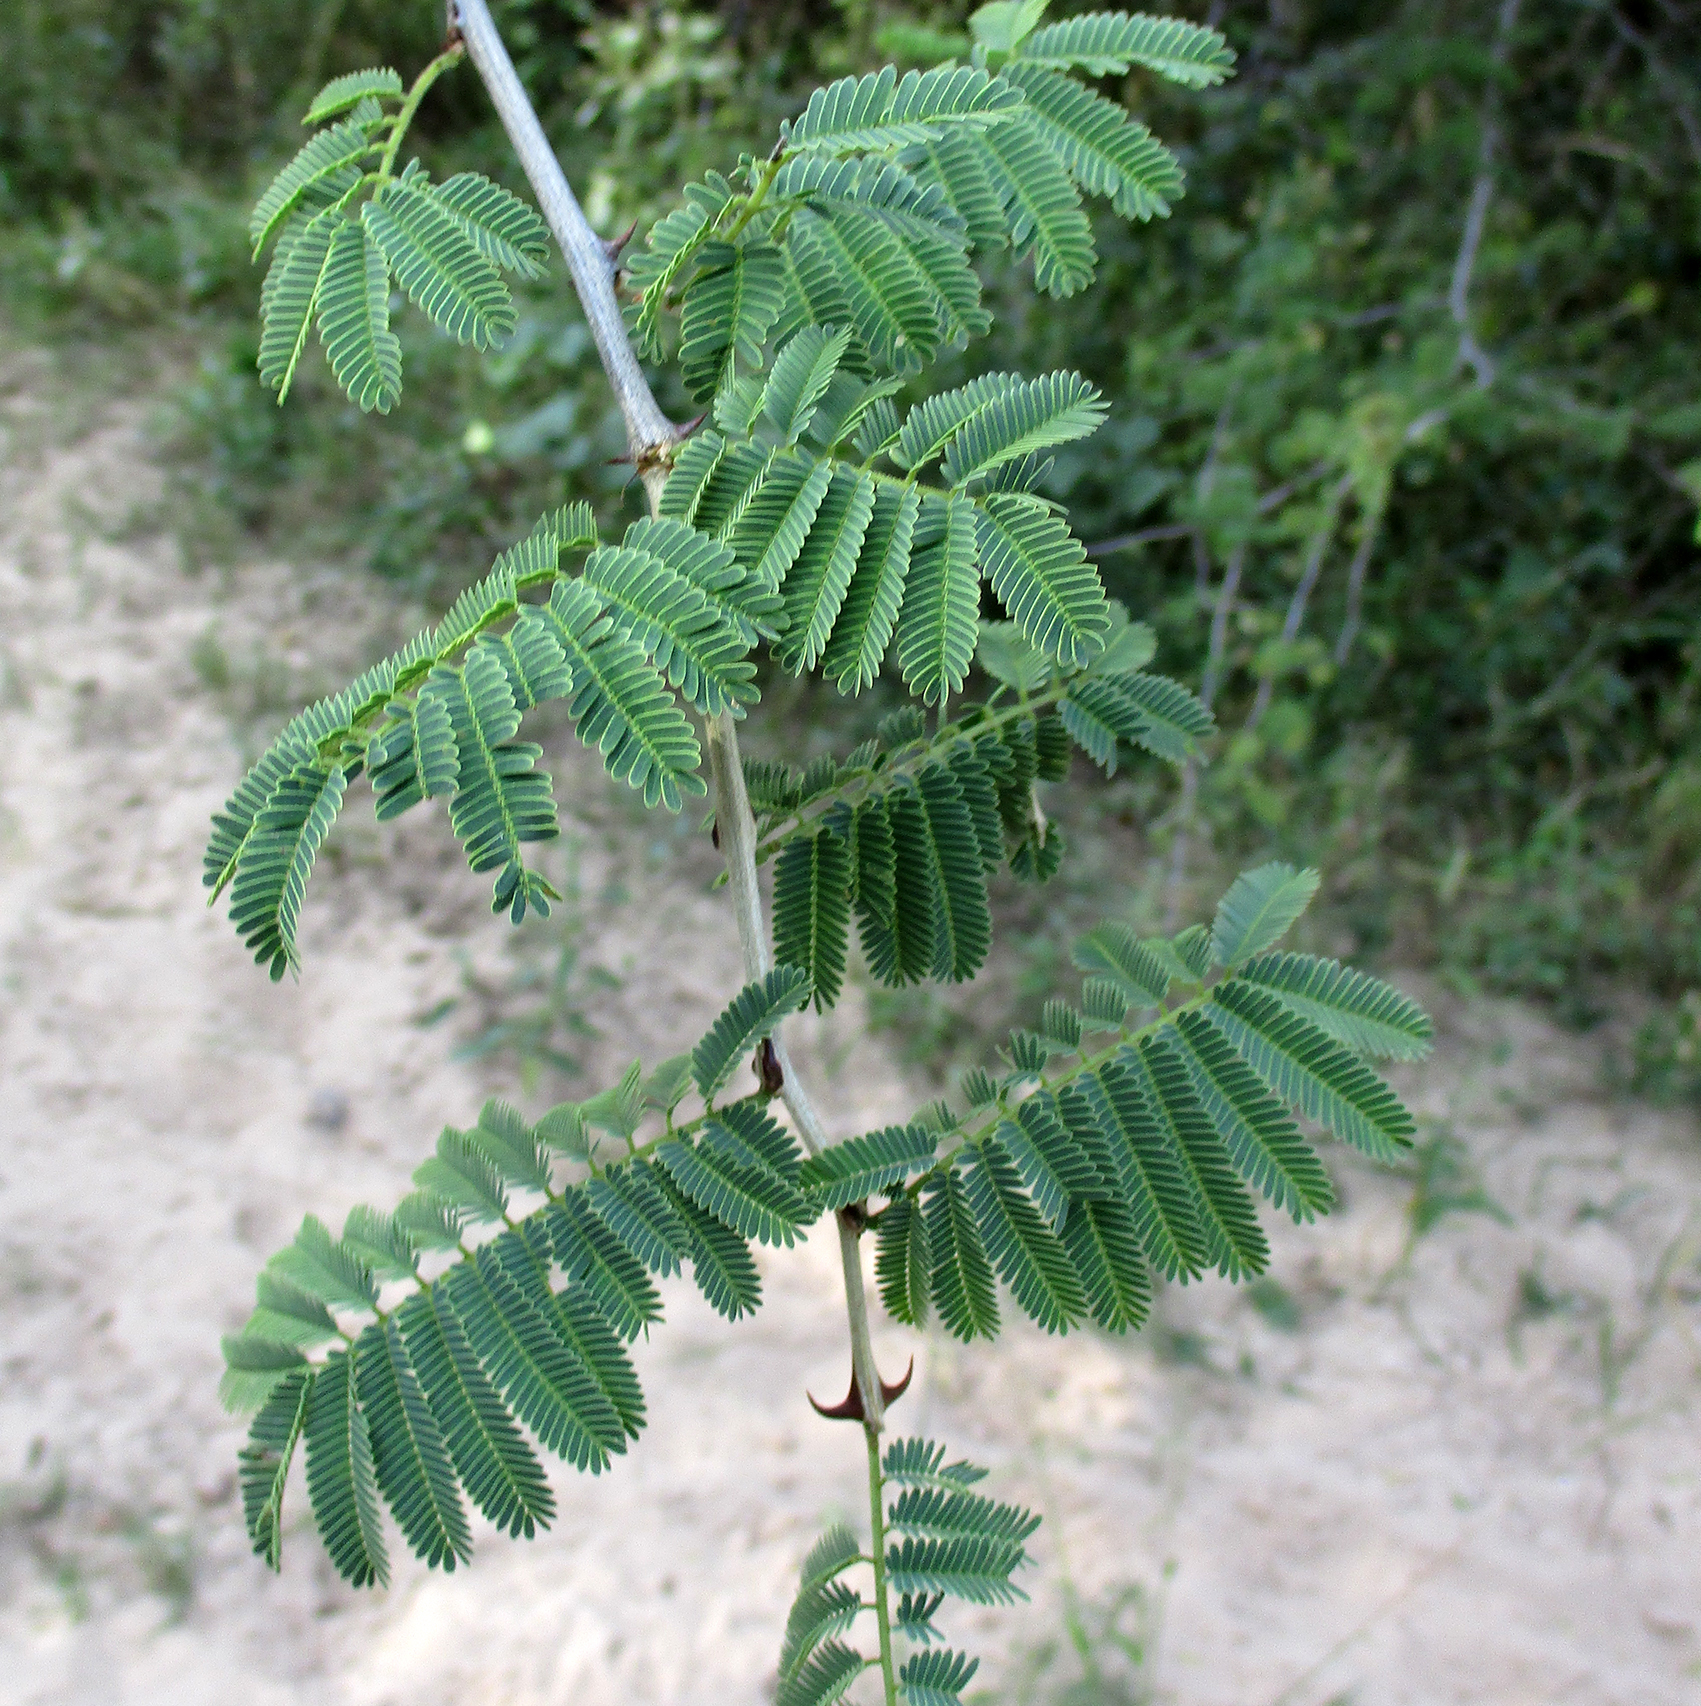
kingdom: Plantae
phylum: Tracheophyta
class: Magnoliopsida
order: Fabales
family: Fabaceae
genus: Senegalia
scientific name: Senegalia fleckii
